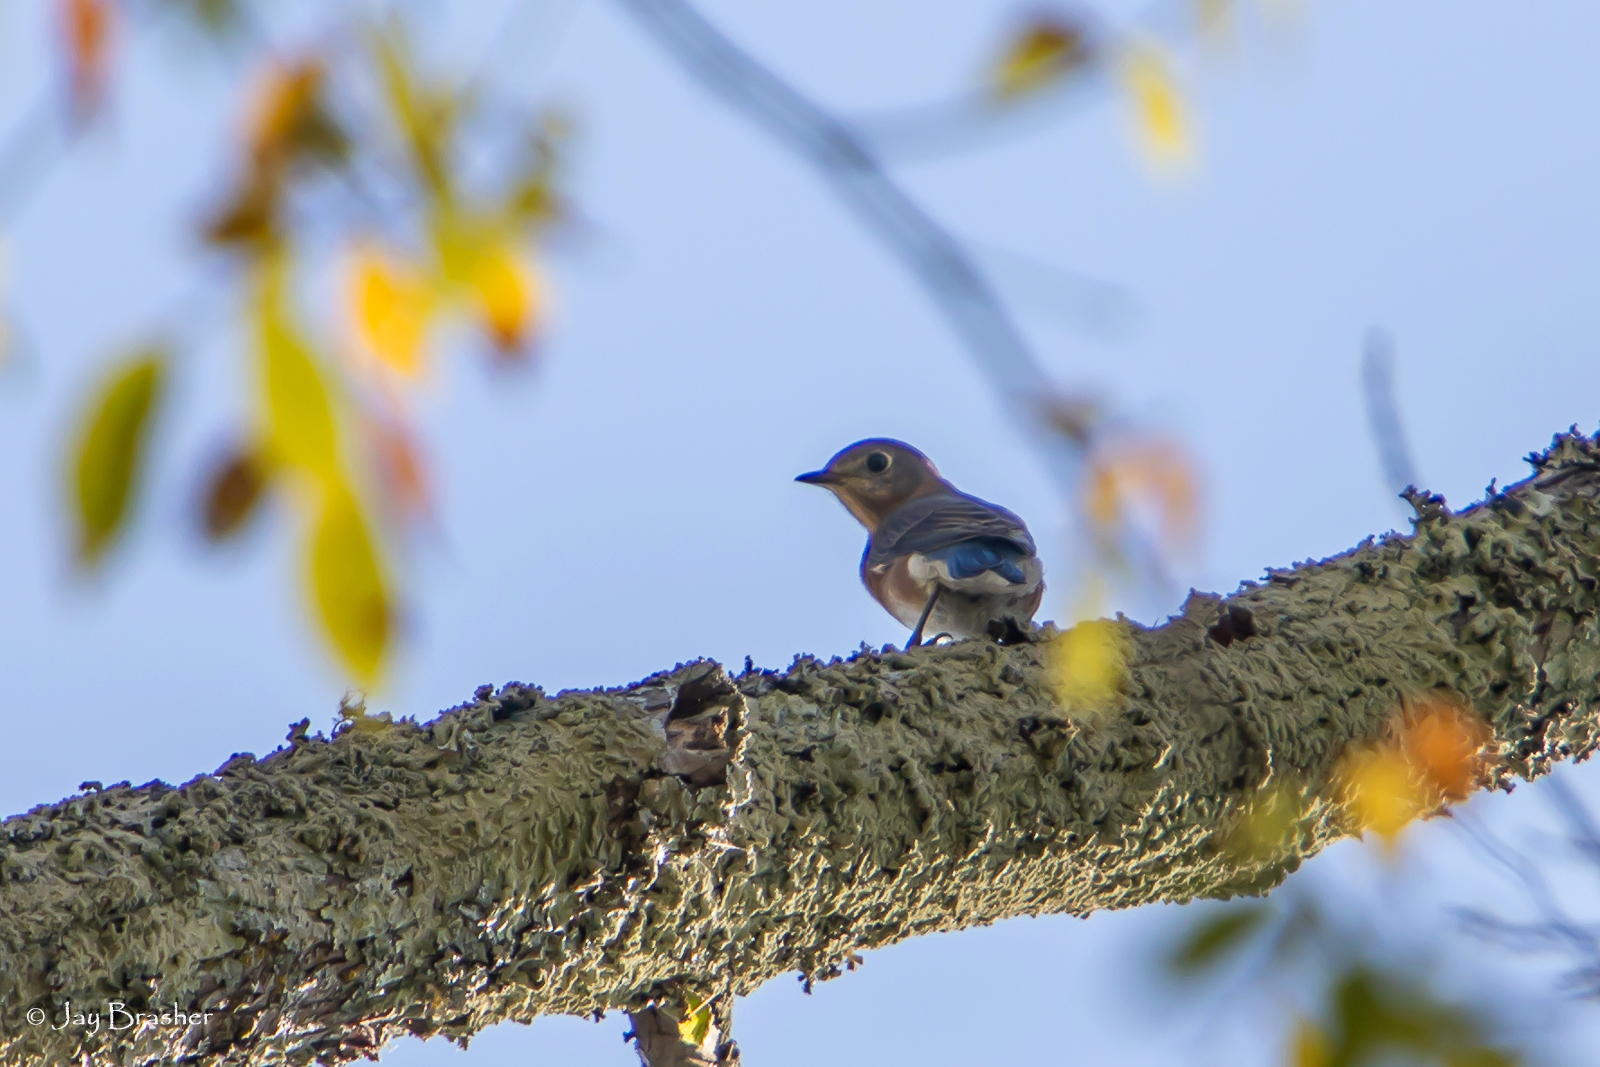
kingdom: Animalia
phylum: Chordata
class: Aves
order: Passeriformes
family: Turdidae
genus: Sialia
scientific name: Sialia sialis
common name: Eastern bluebird
